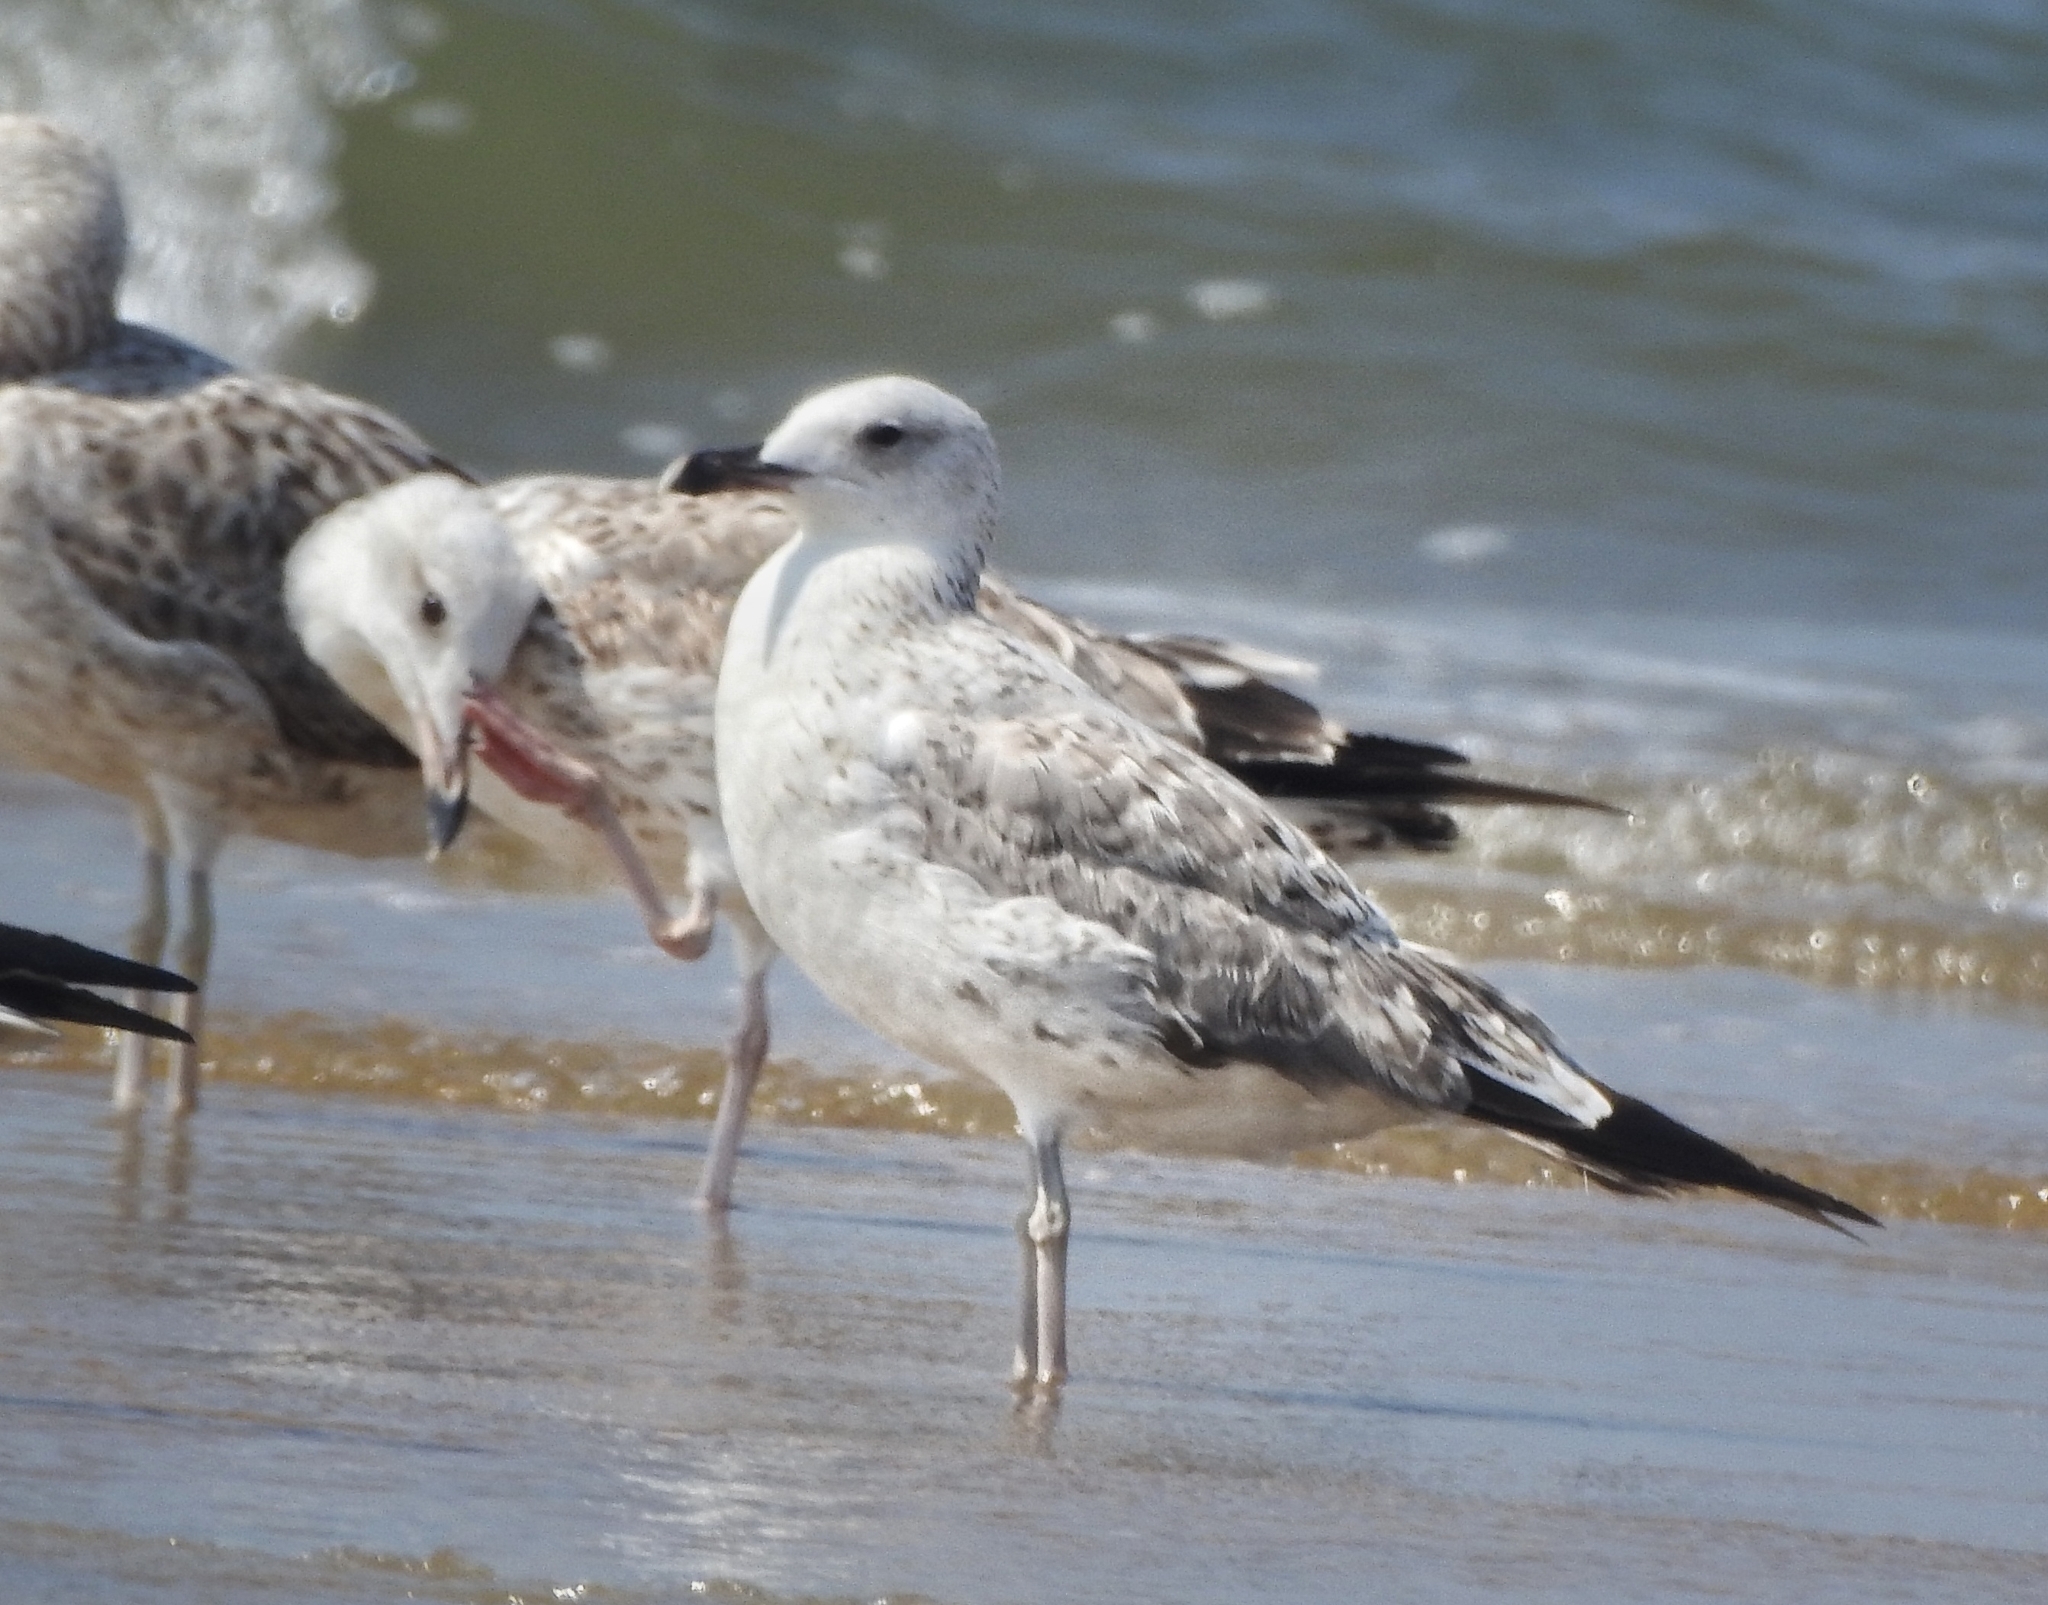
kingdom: Animalia
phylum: Chordata
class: Aves
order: Charadriiformes
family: Laridae
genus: Larus
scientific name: Larus fuscus
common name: Lesser black-backed gull
